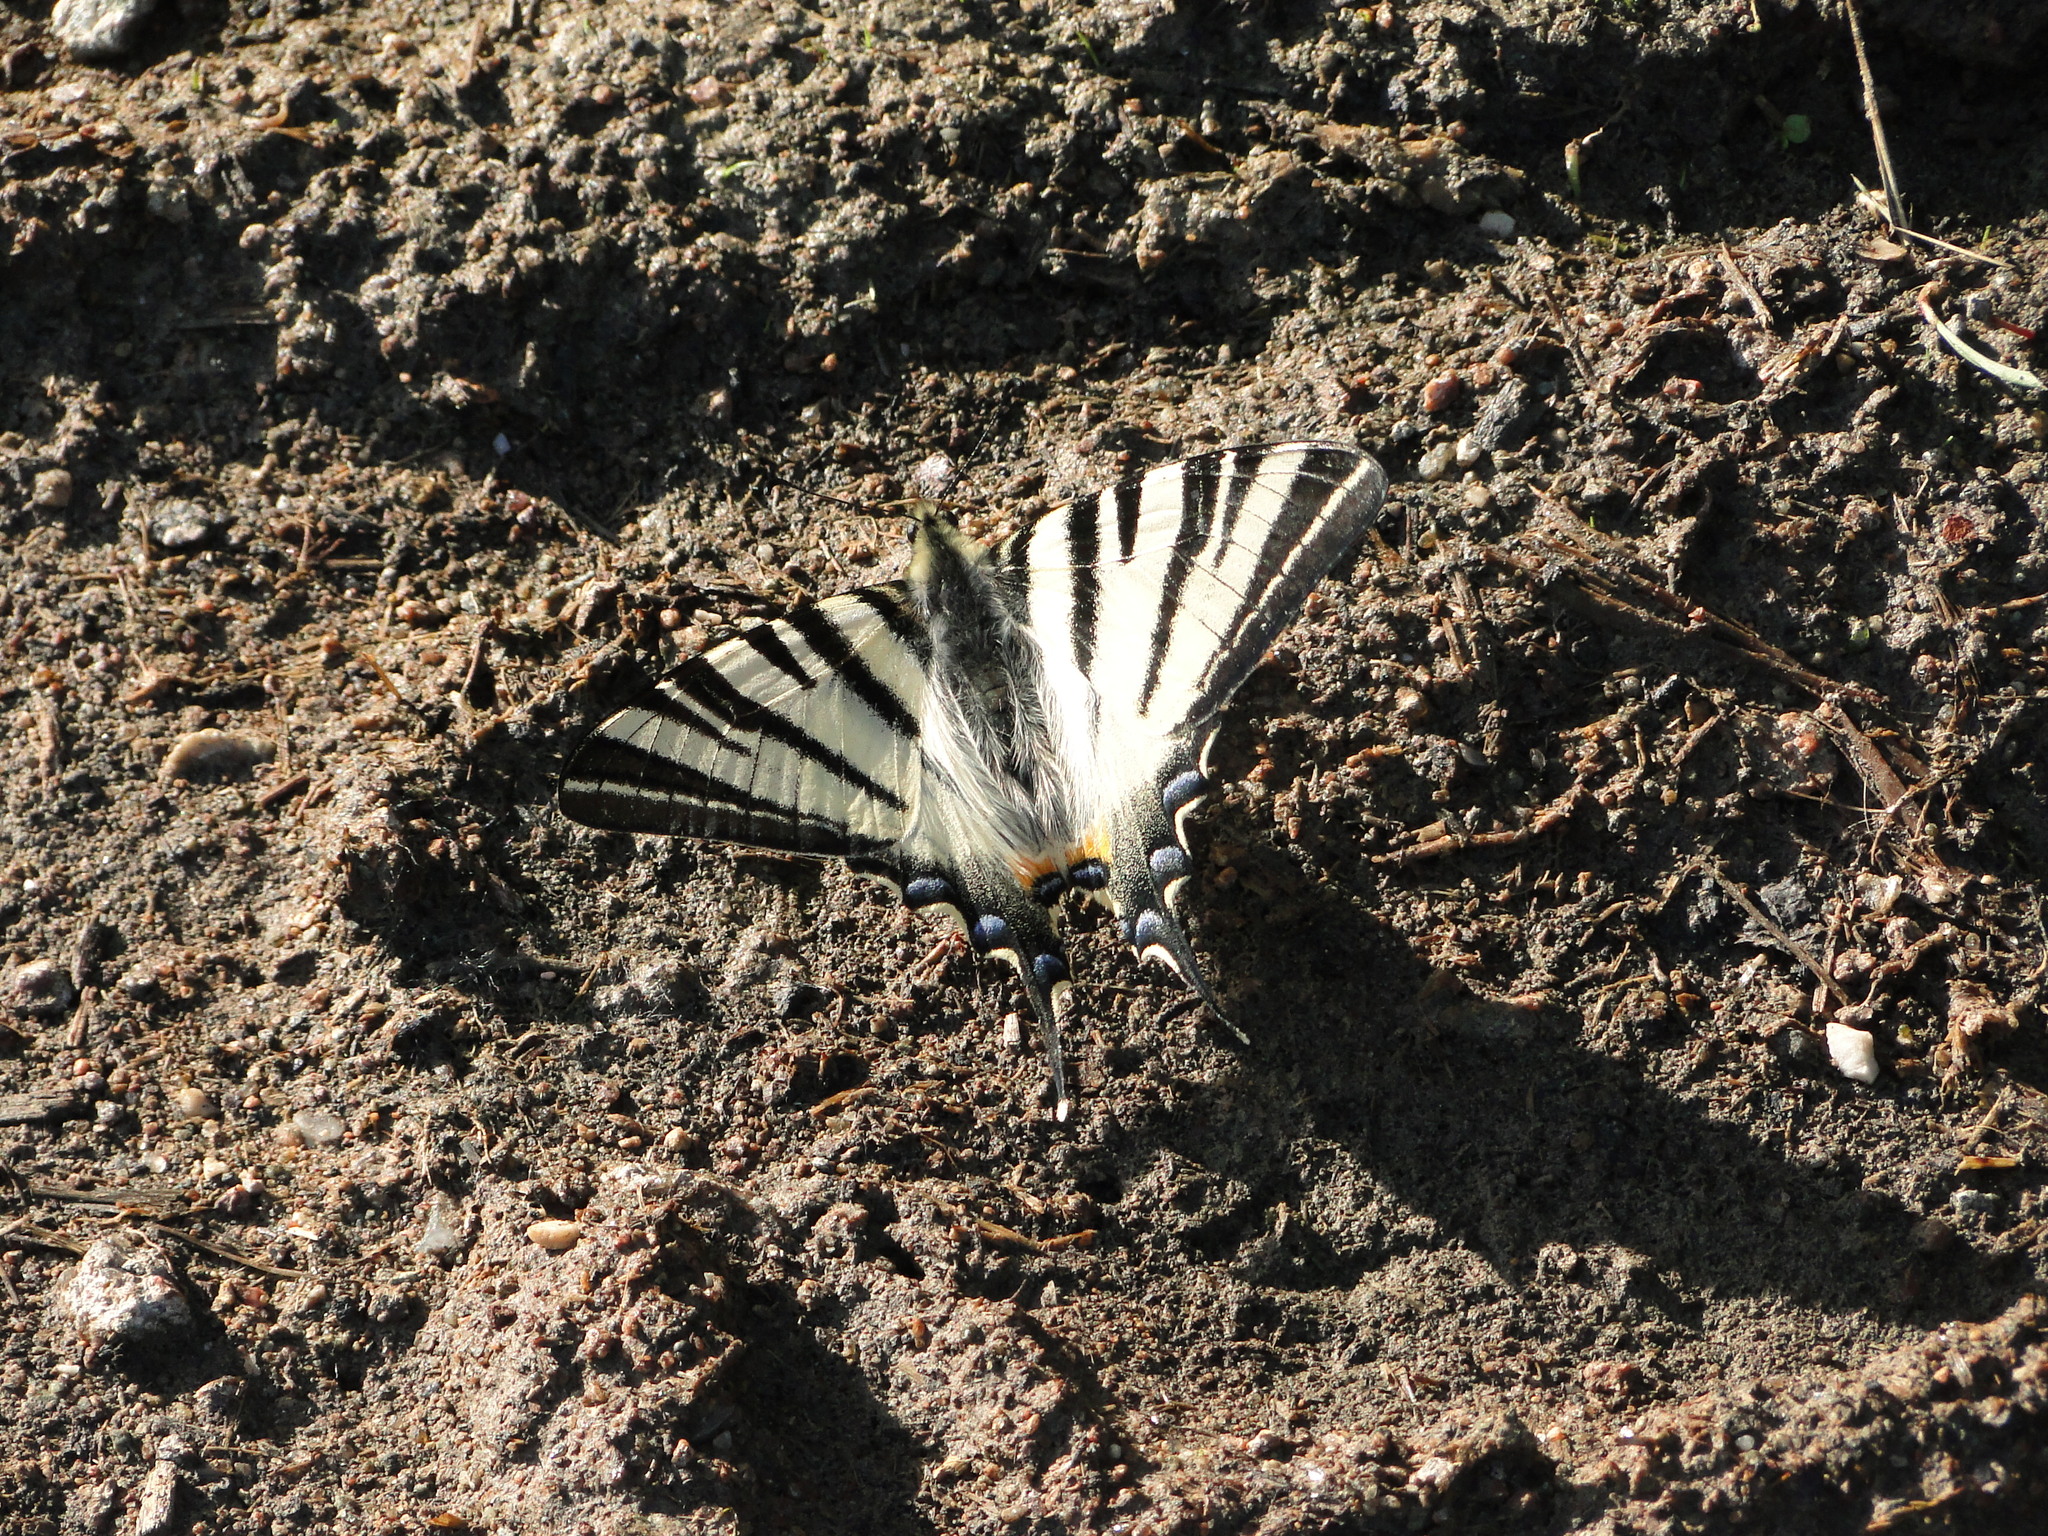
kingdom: Animalia
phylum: Arthropoda
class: Insecta
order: Lepidoptera
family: Papilionidae
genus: Iphiclides
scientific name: Iphiclides podalirius
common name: Scarce swallowtail
